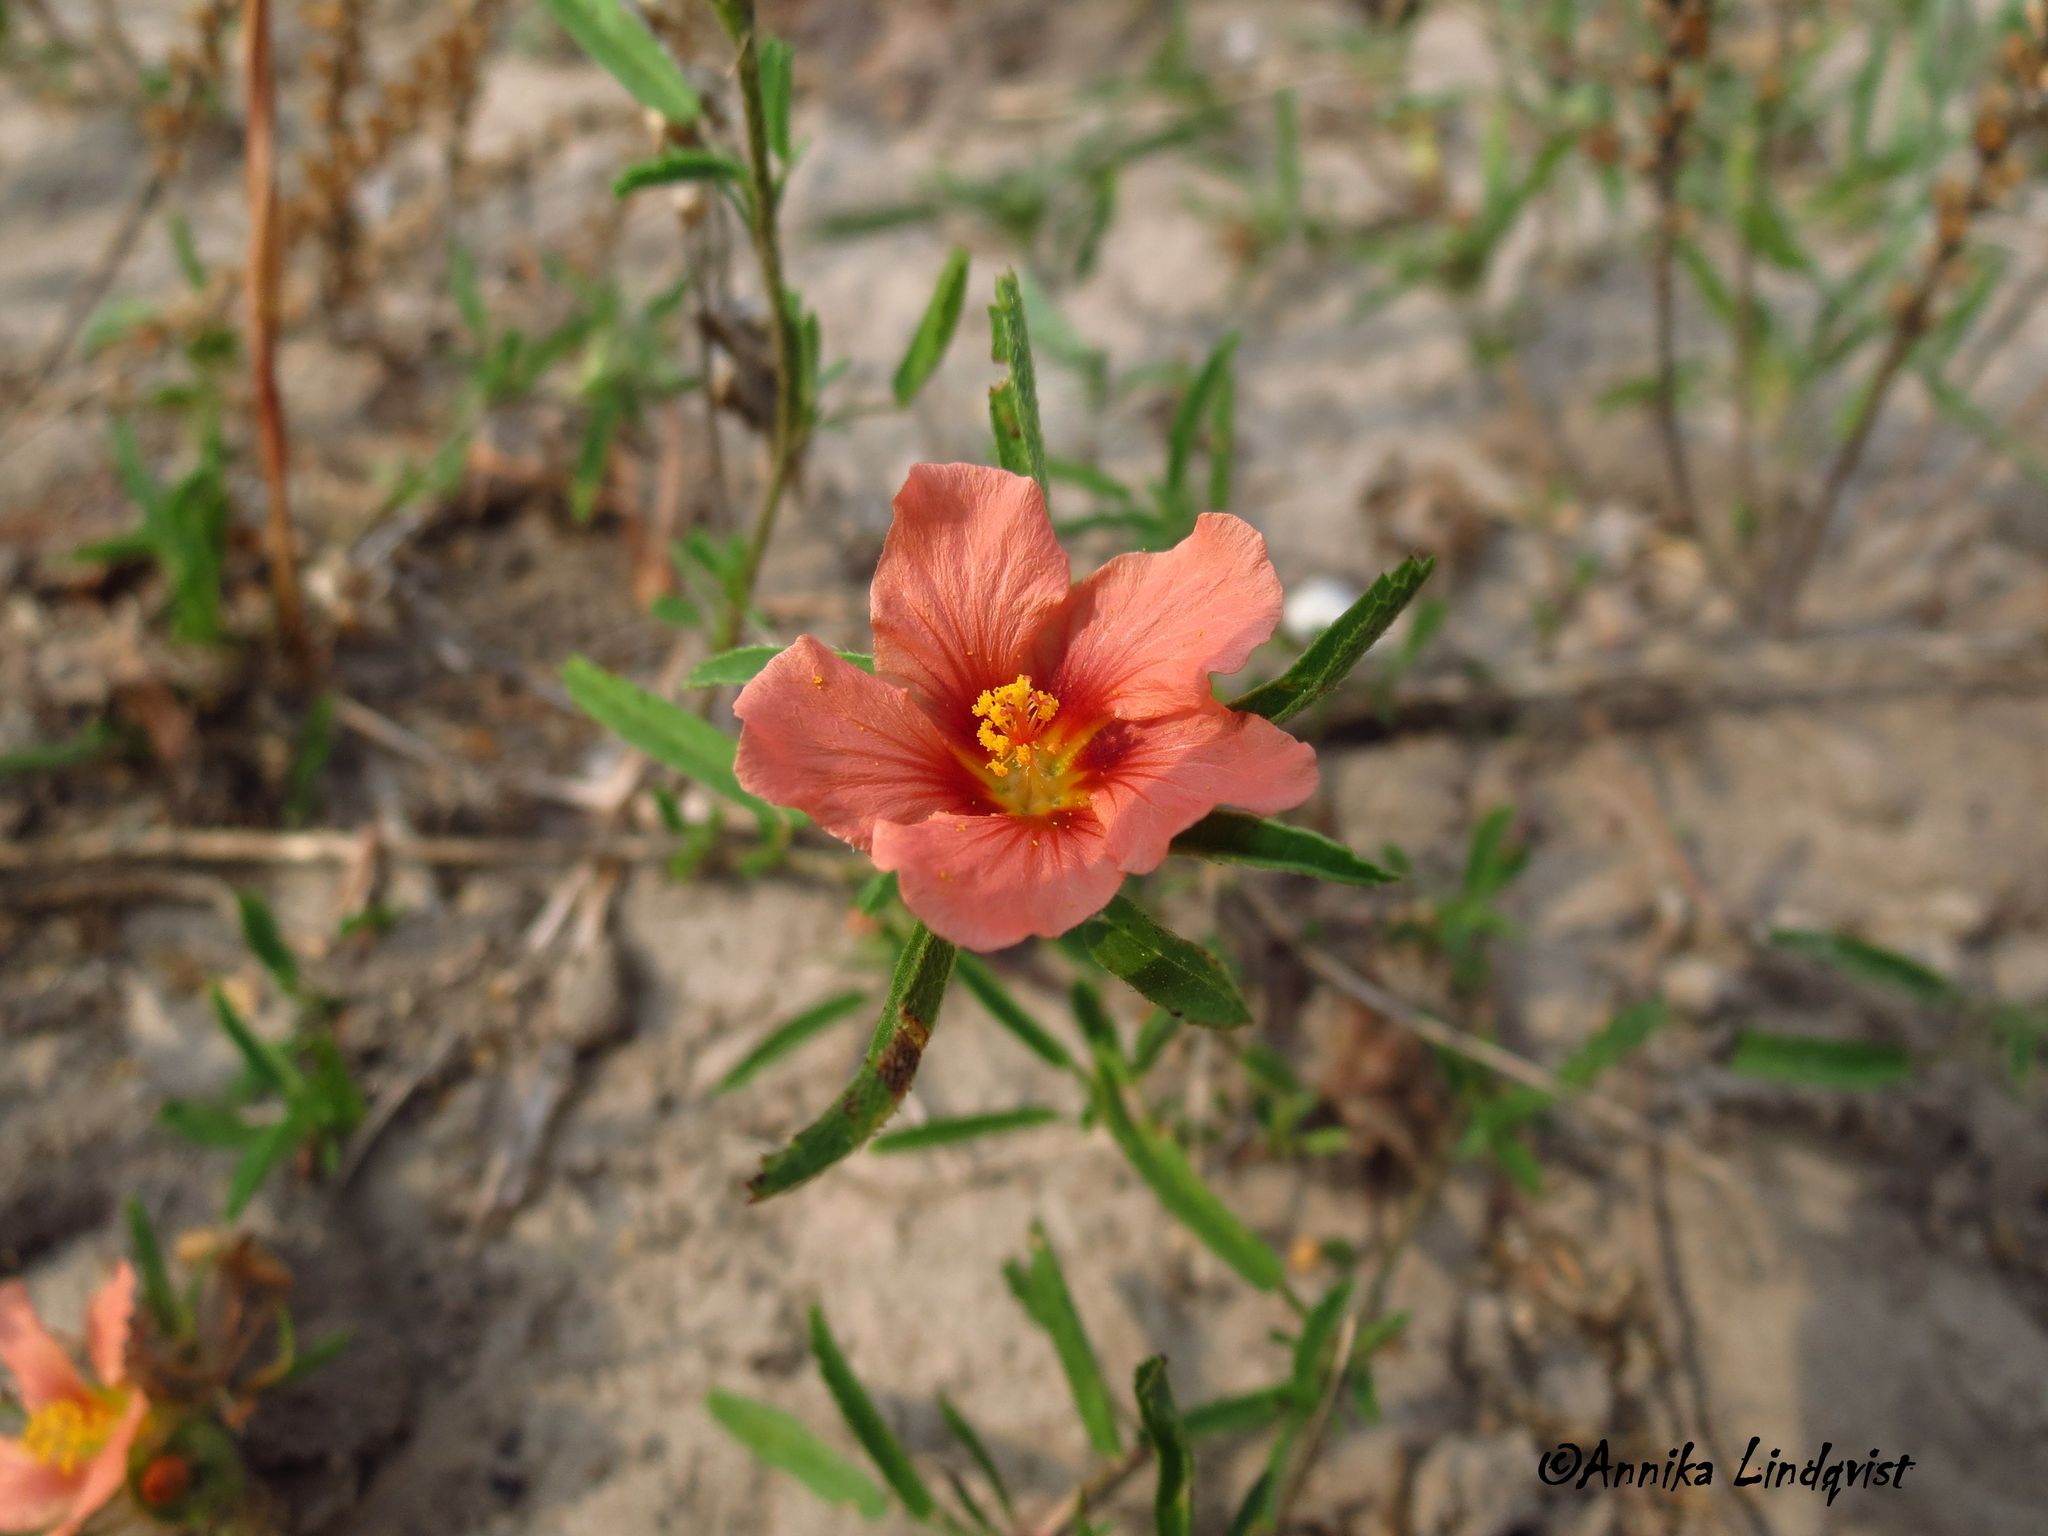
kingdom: Plantae
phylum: Tracheophyta
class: Magnoliopsida
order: Malvales
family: Malvaceae
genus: Sida
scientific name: Sida ciliaris
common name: Bracted fanpetals
